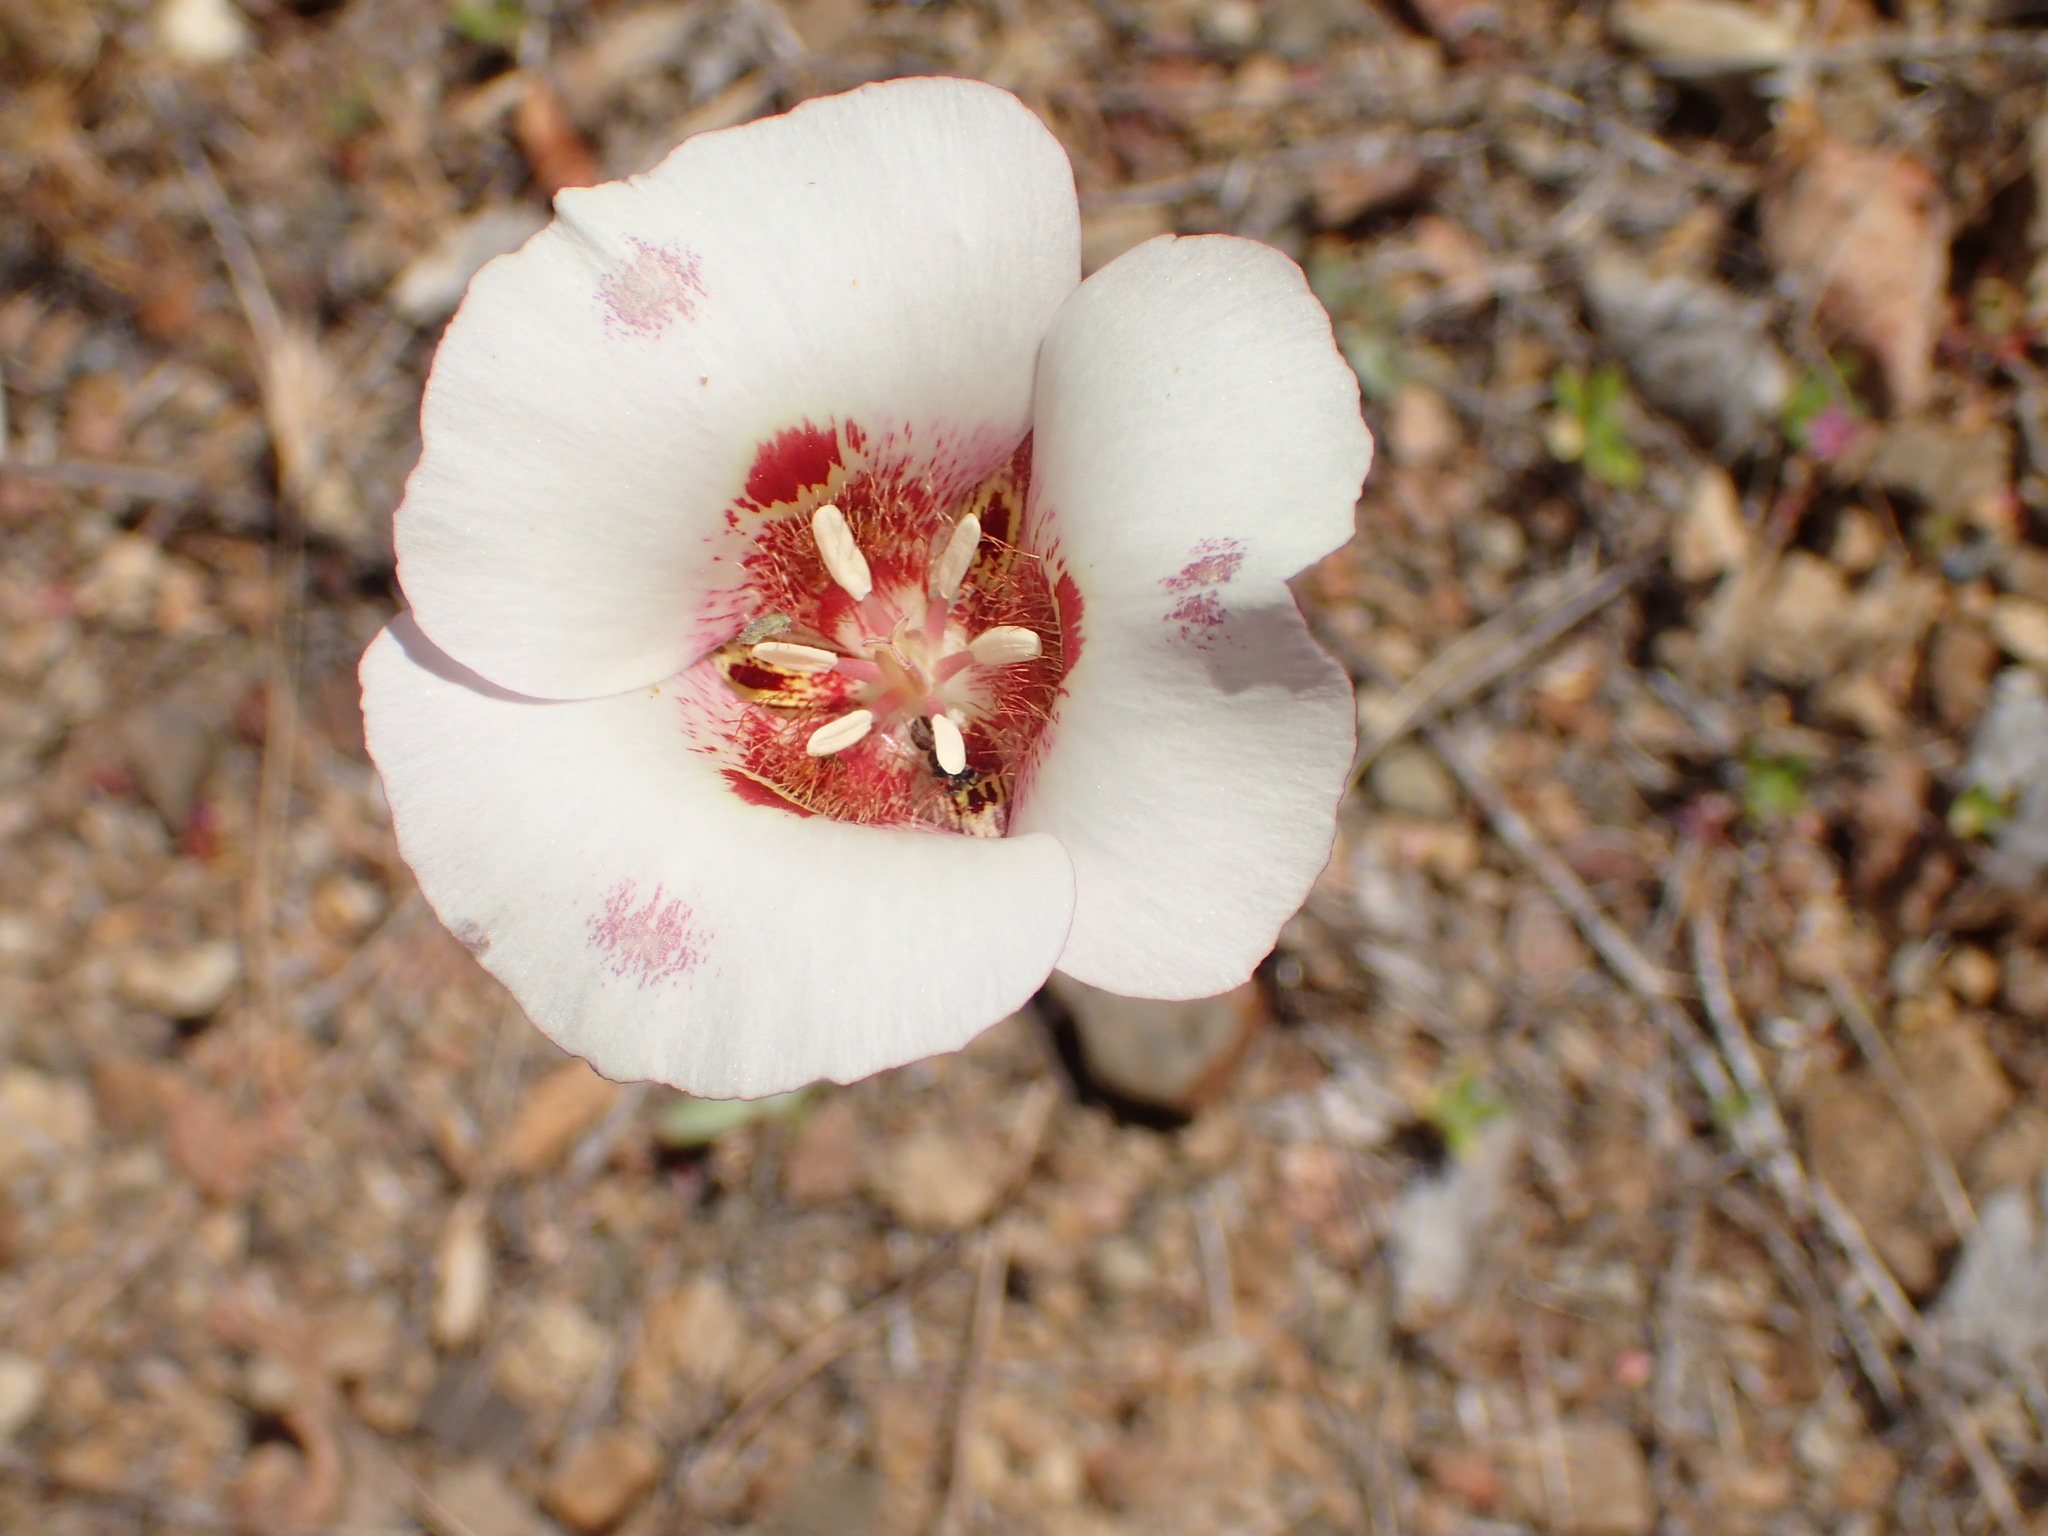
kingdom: Plantae
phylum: Tracheophyta
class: Liliopsida
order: Liliales
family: Liliaceae
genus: Calochortus
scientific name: Calochortus venustus
